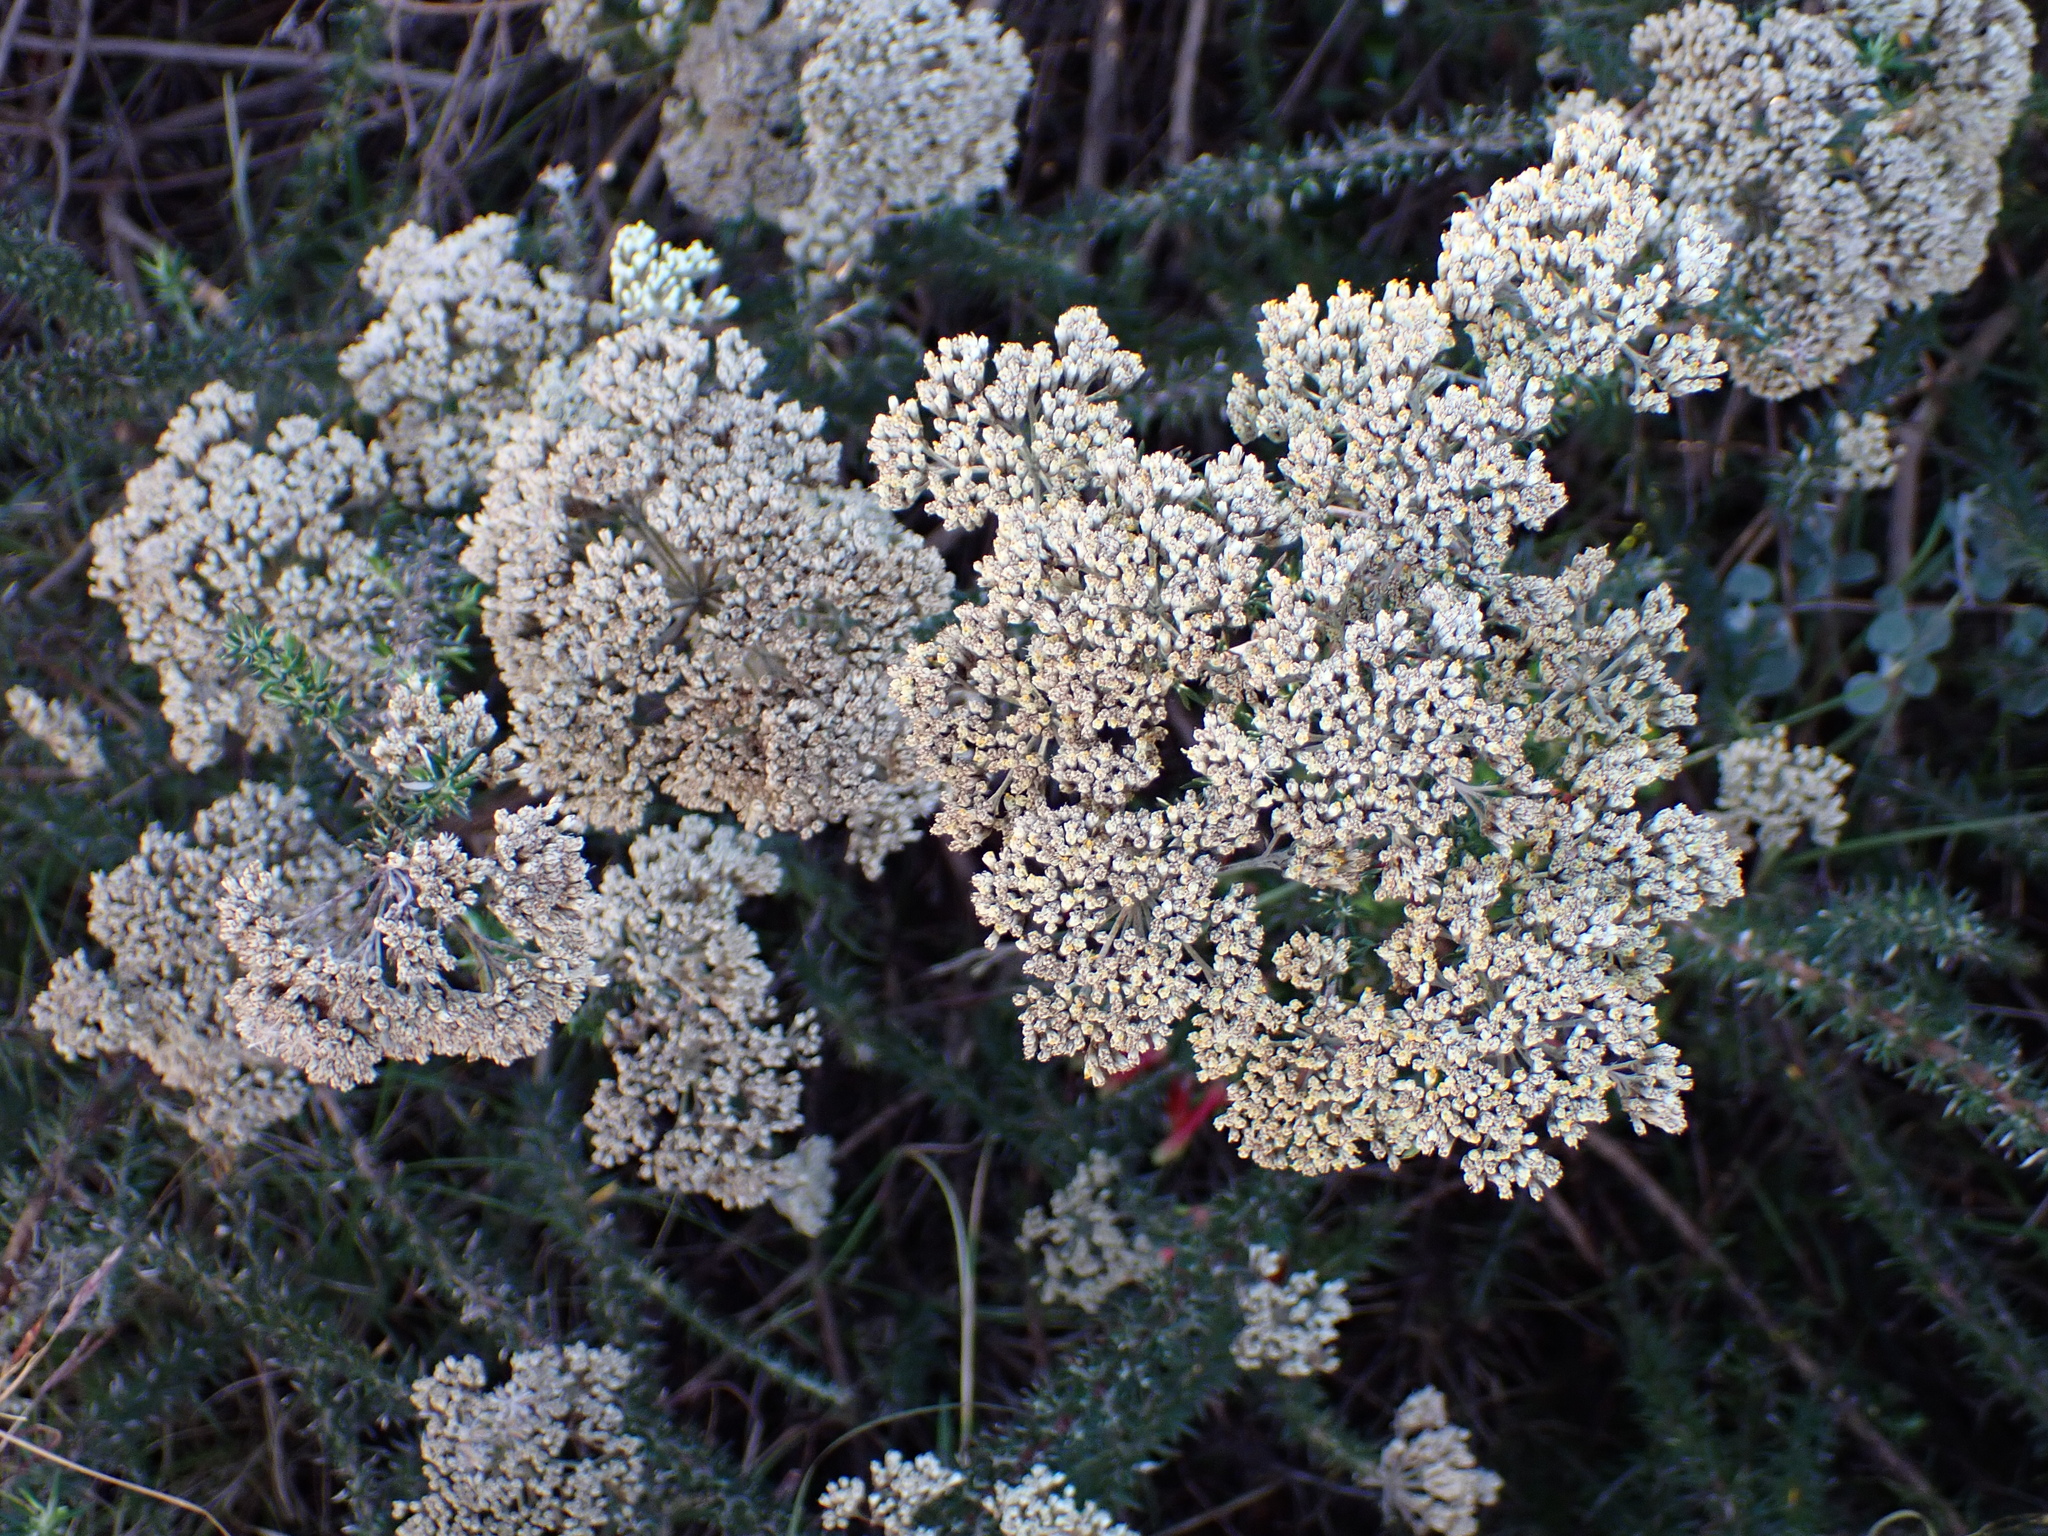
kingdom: Plantae
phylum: Tracheophyta
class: Magnoliopsida
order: Asterales
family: Asteraceae
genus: Metalasia
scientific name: Metalasia densa
